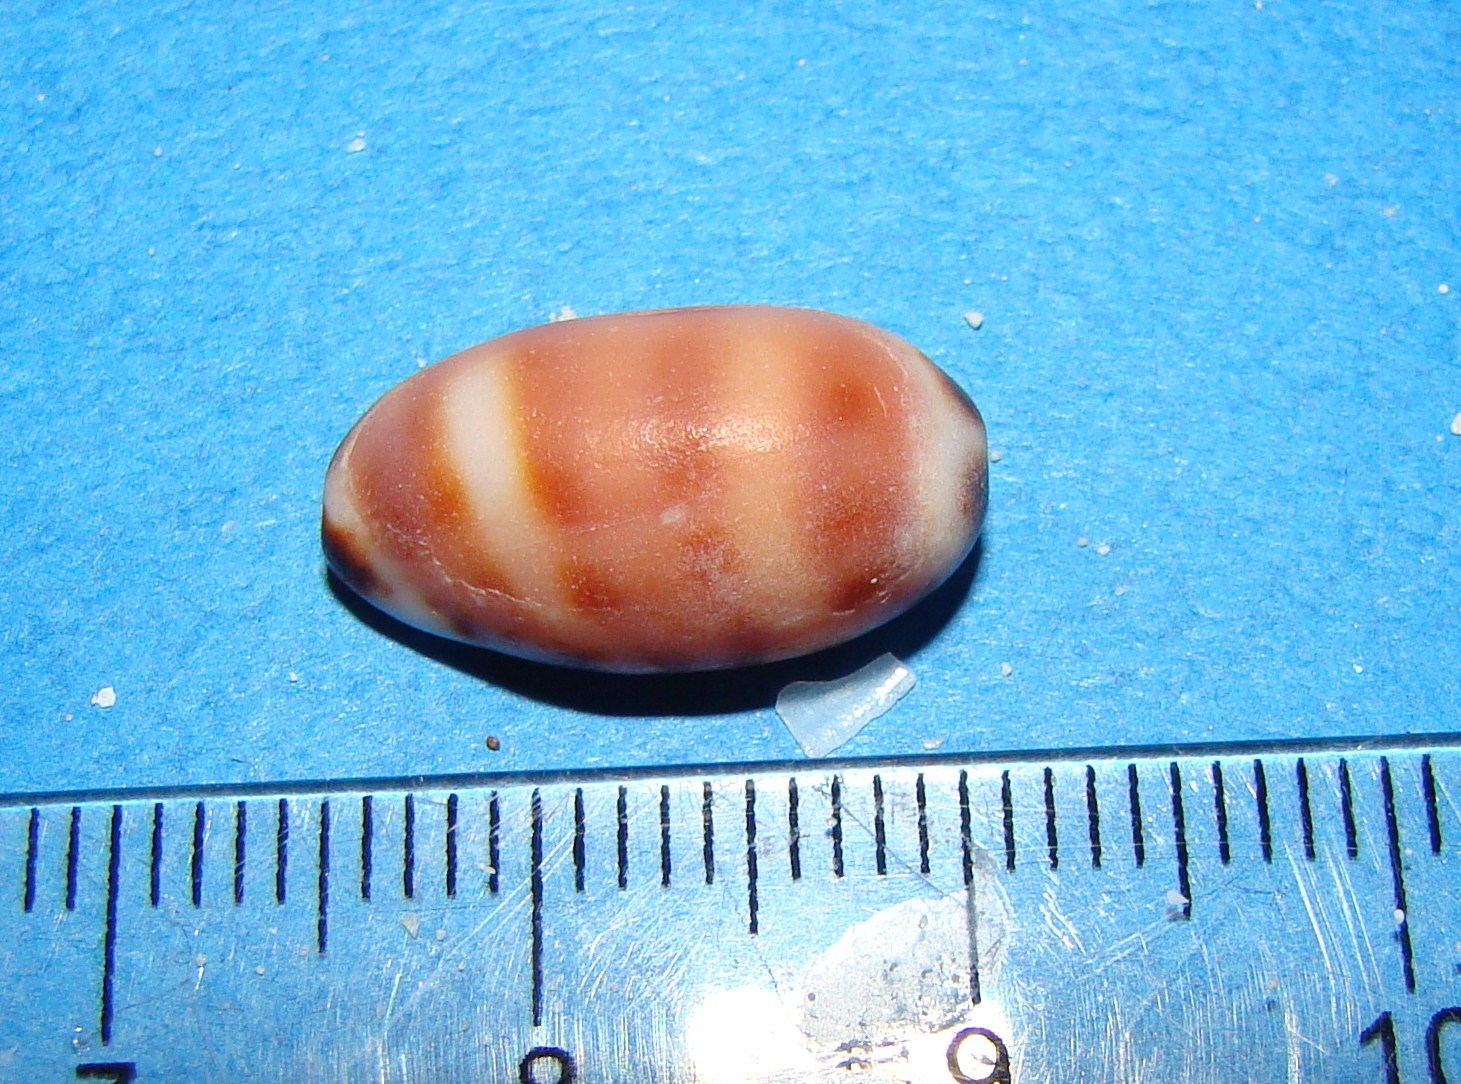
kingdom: Animalia
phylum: Mollusca
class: Gastropoda
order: Littorinimorpha
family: Cypraeidae
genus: Melicerona
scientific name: Melicerona listeri
